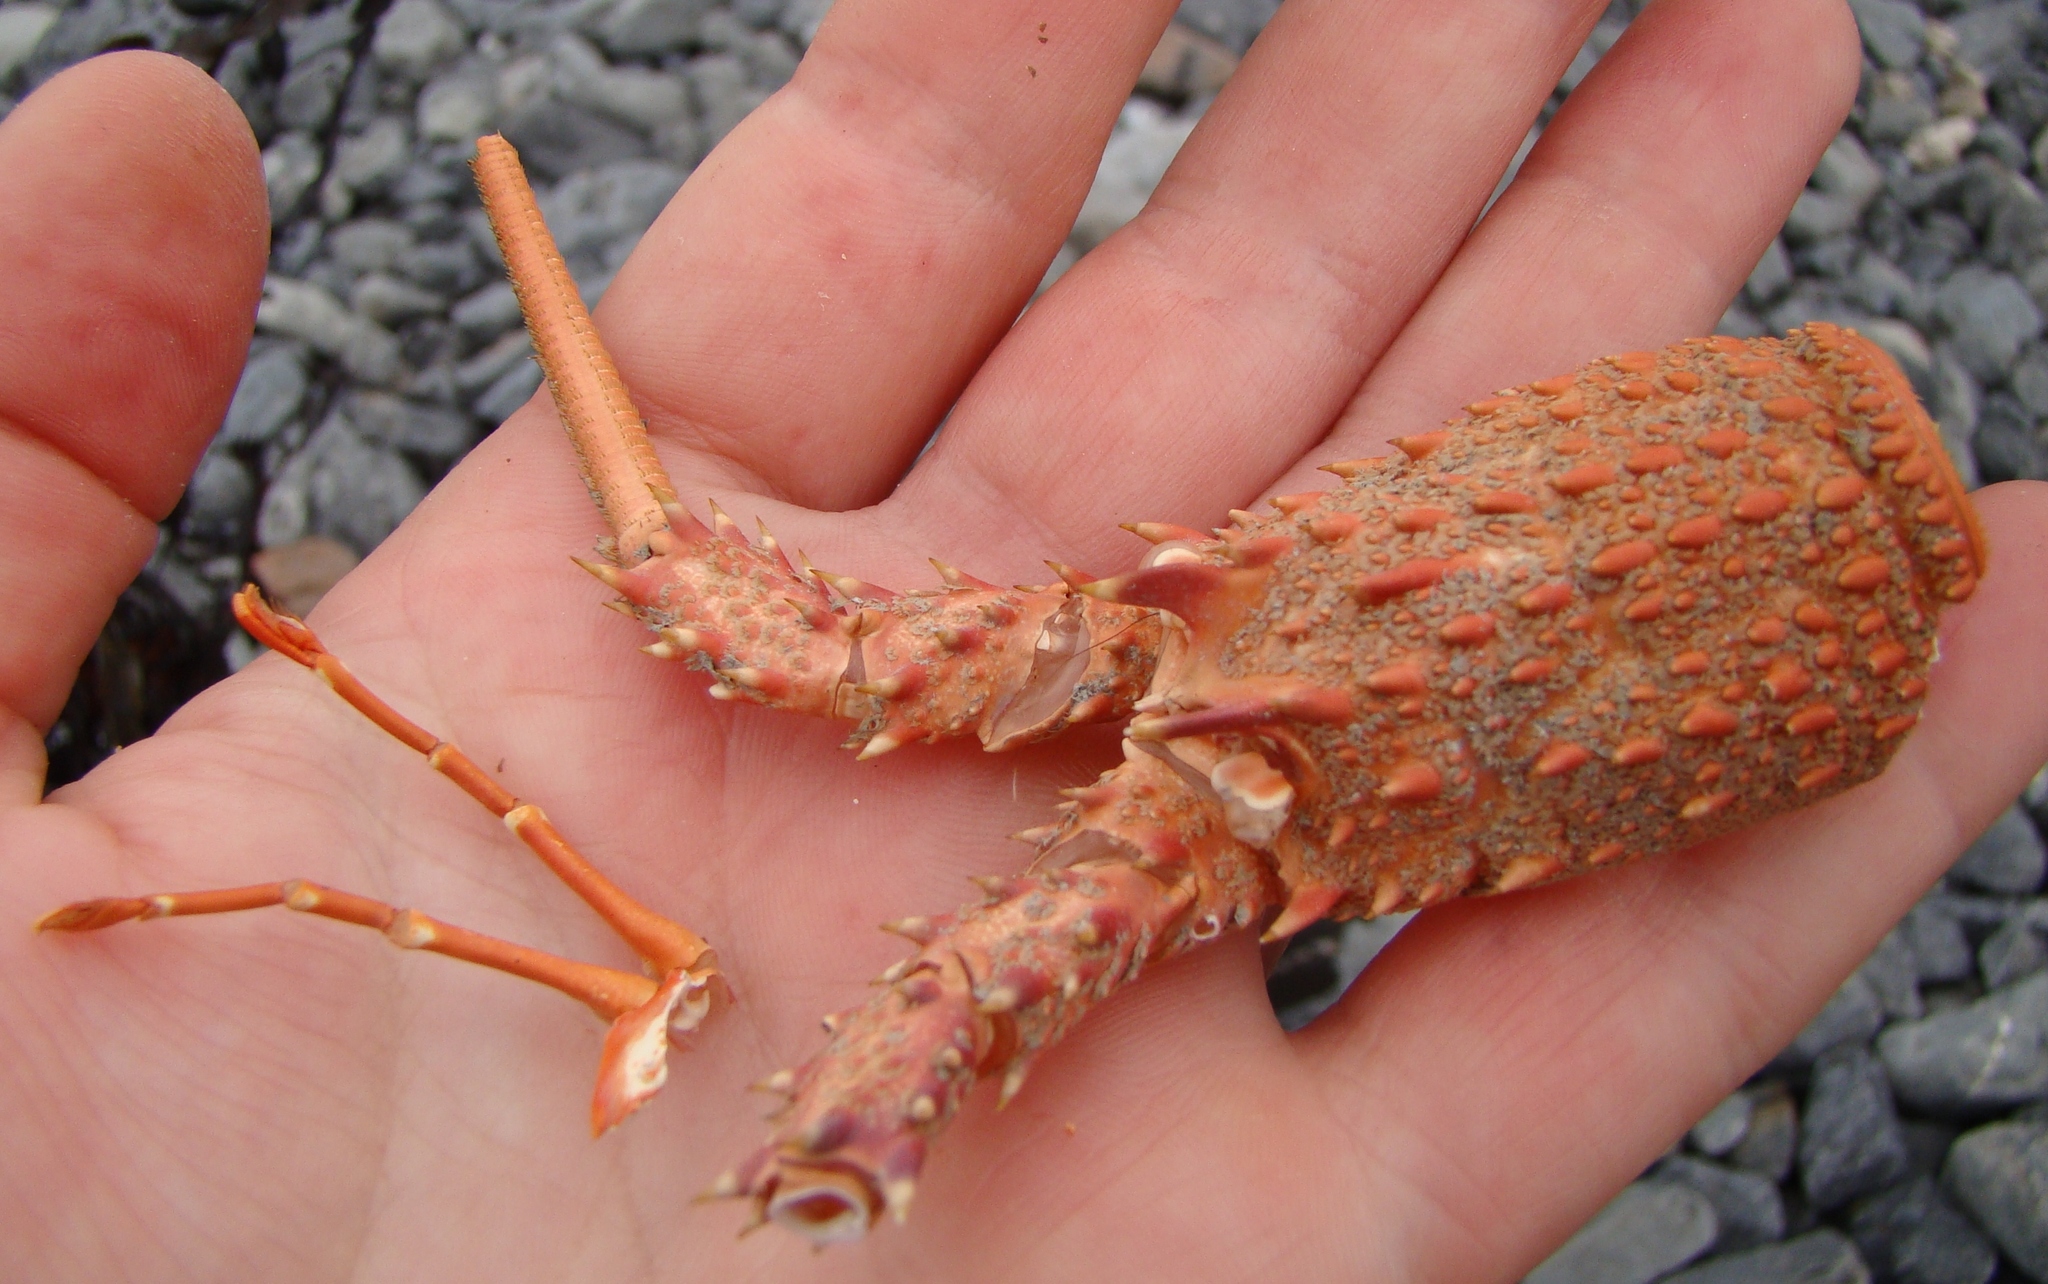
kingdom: Animalia
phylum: Arthropoda
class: Malacostraca
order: Decapoda
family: Palinuridae
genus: Jasus
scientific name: Jasus edwardsii
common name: Red rock lobster
